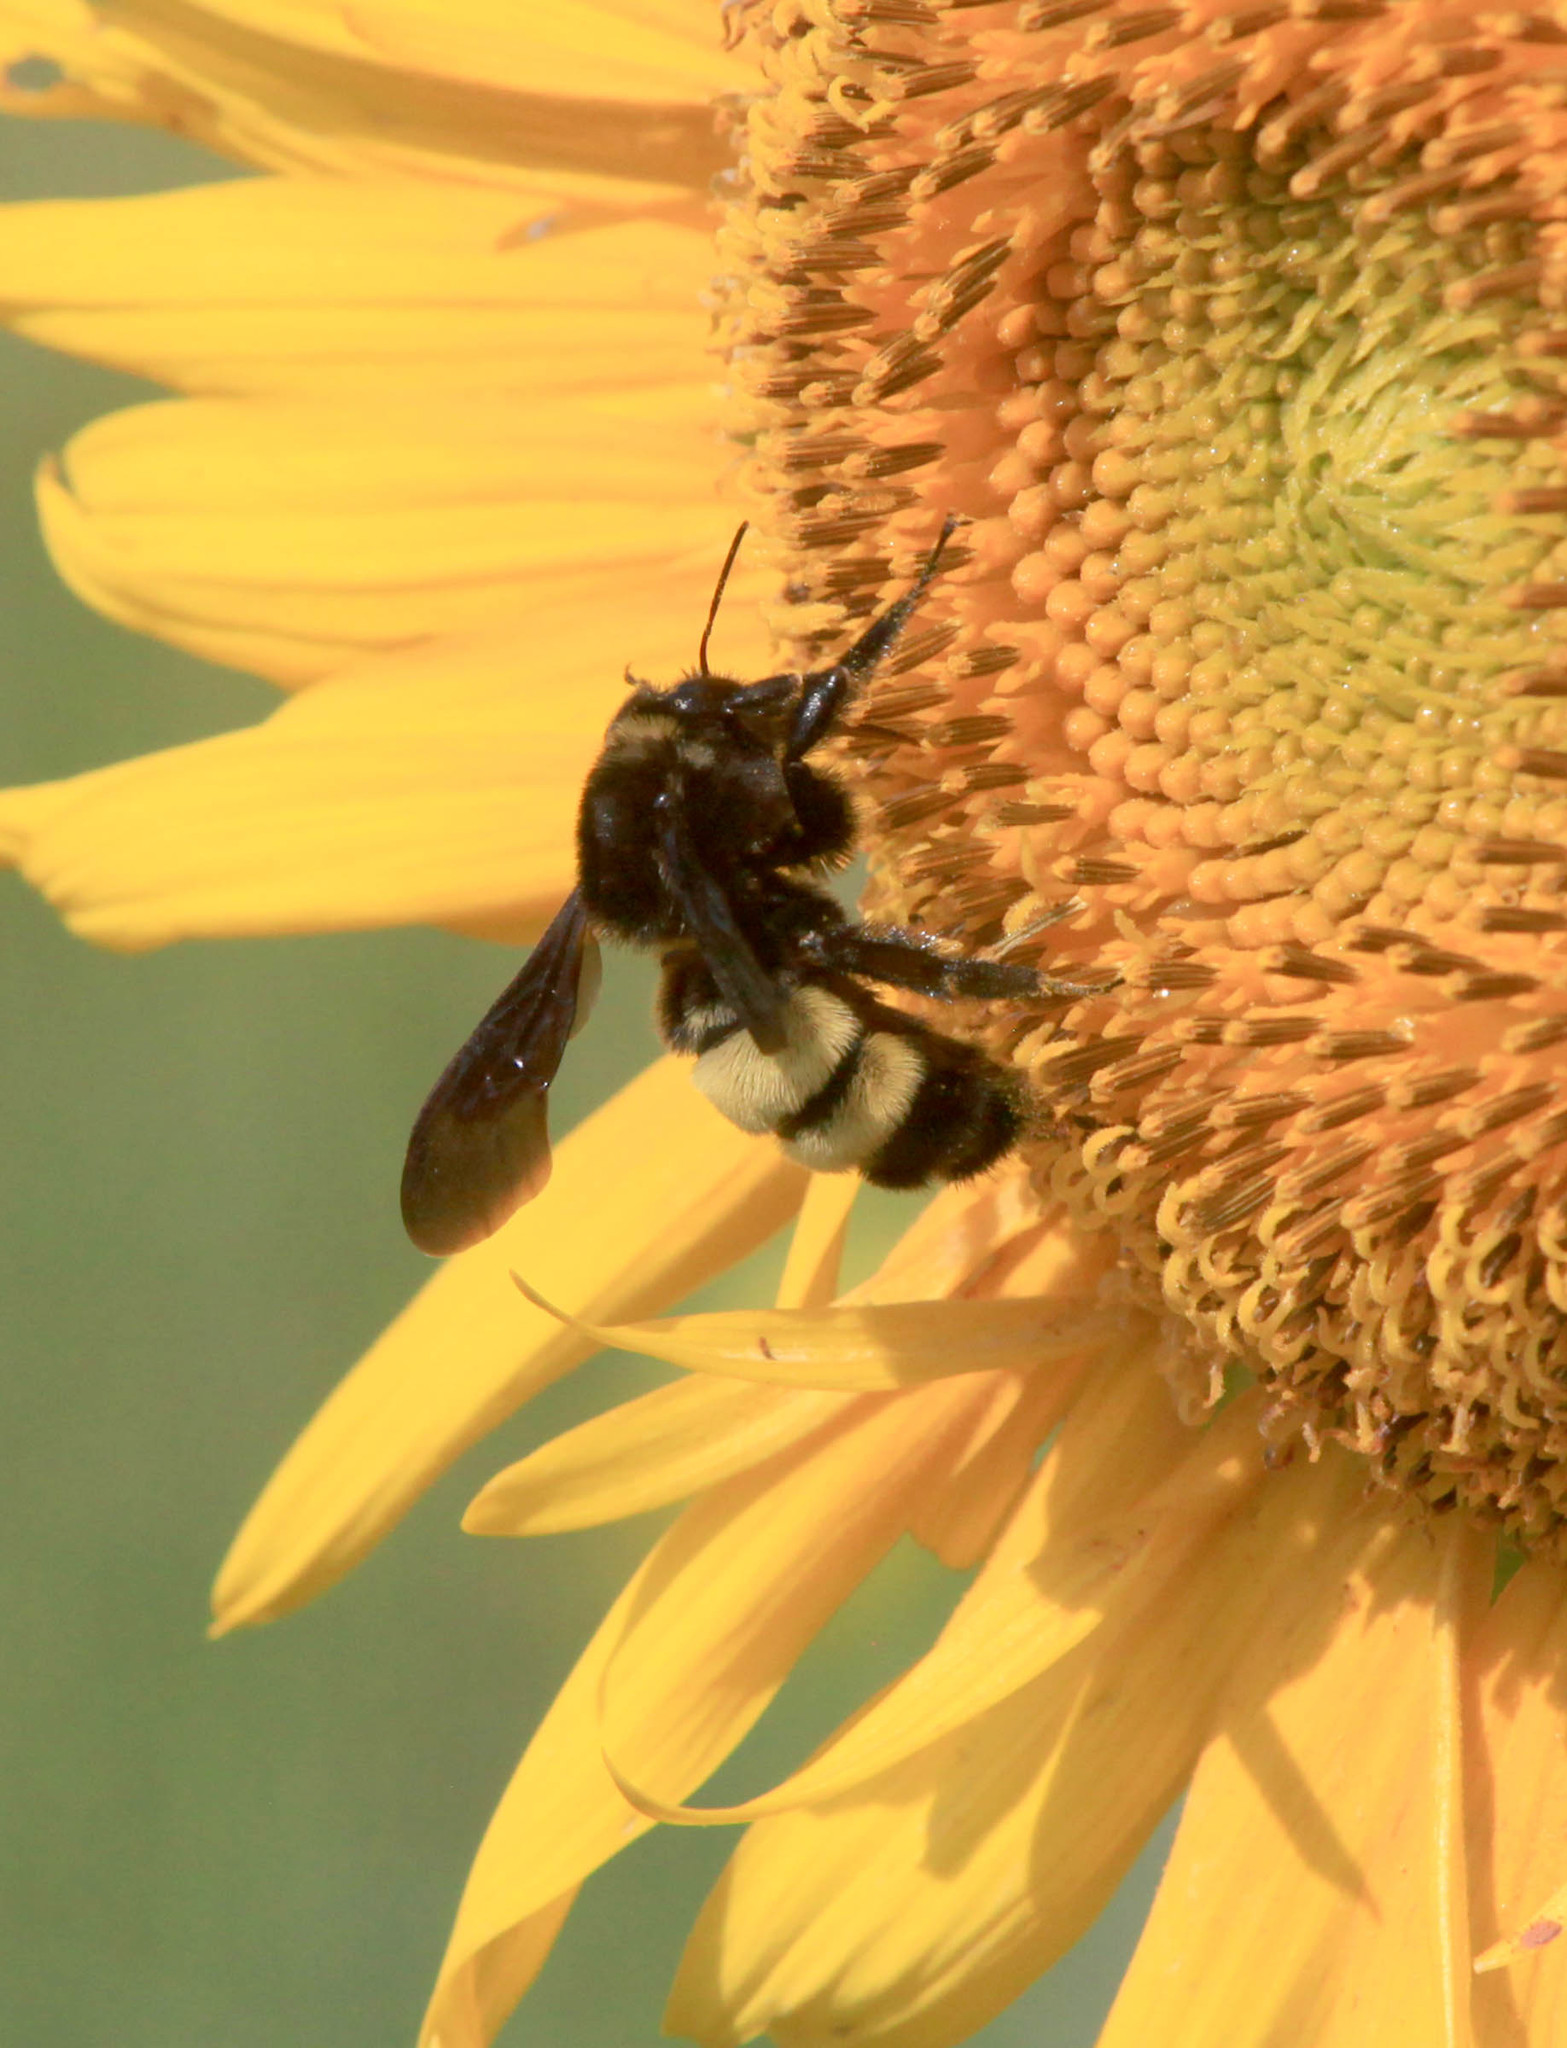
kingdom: Animalia
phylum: Arthropoda
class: Insecta
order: Hymenoptera
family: Apidae
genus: Bombus
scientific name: Bombus pensylvanicus
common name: Bumble bee
